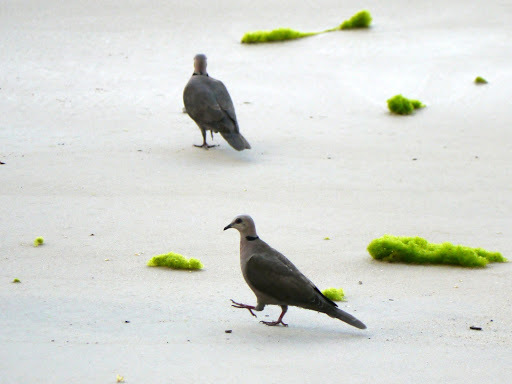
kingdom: Animalia
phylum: Chordata
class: Aves
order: Columbiformes
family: Columbidae
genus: Streptopelia
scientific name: Streptopelia semitorquata
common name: Red-eyed dove
